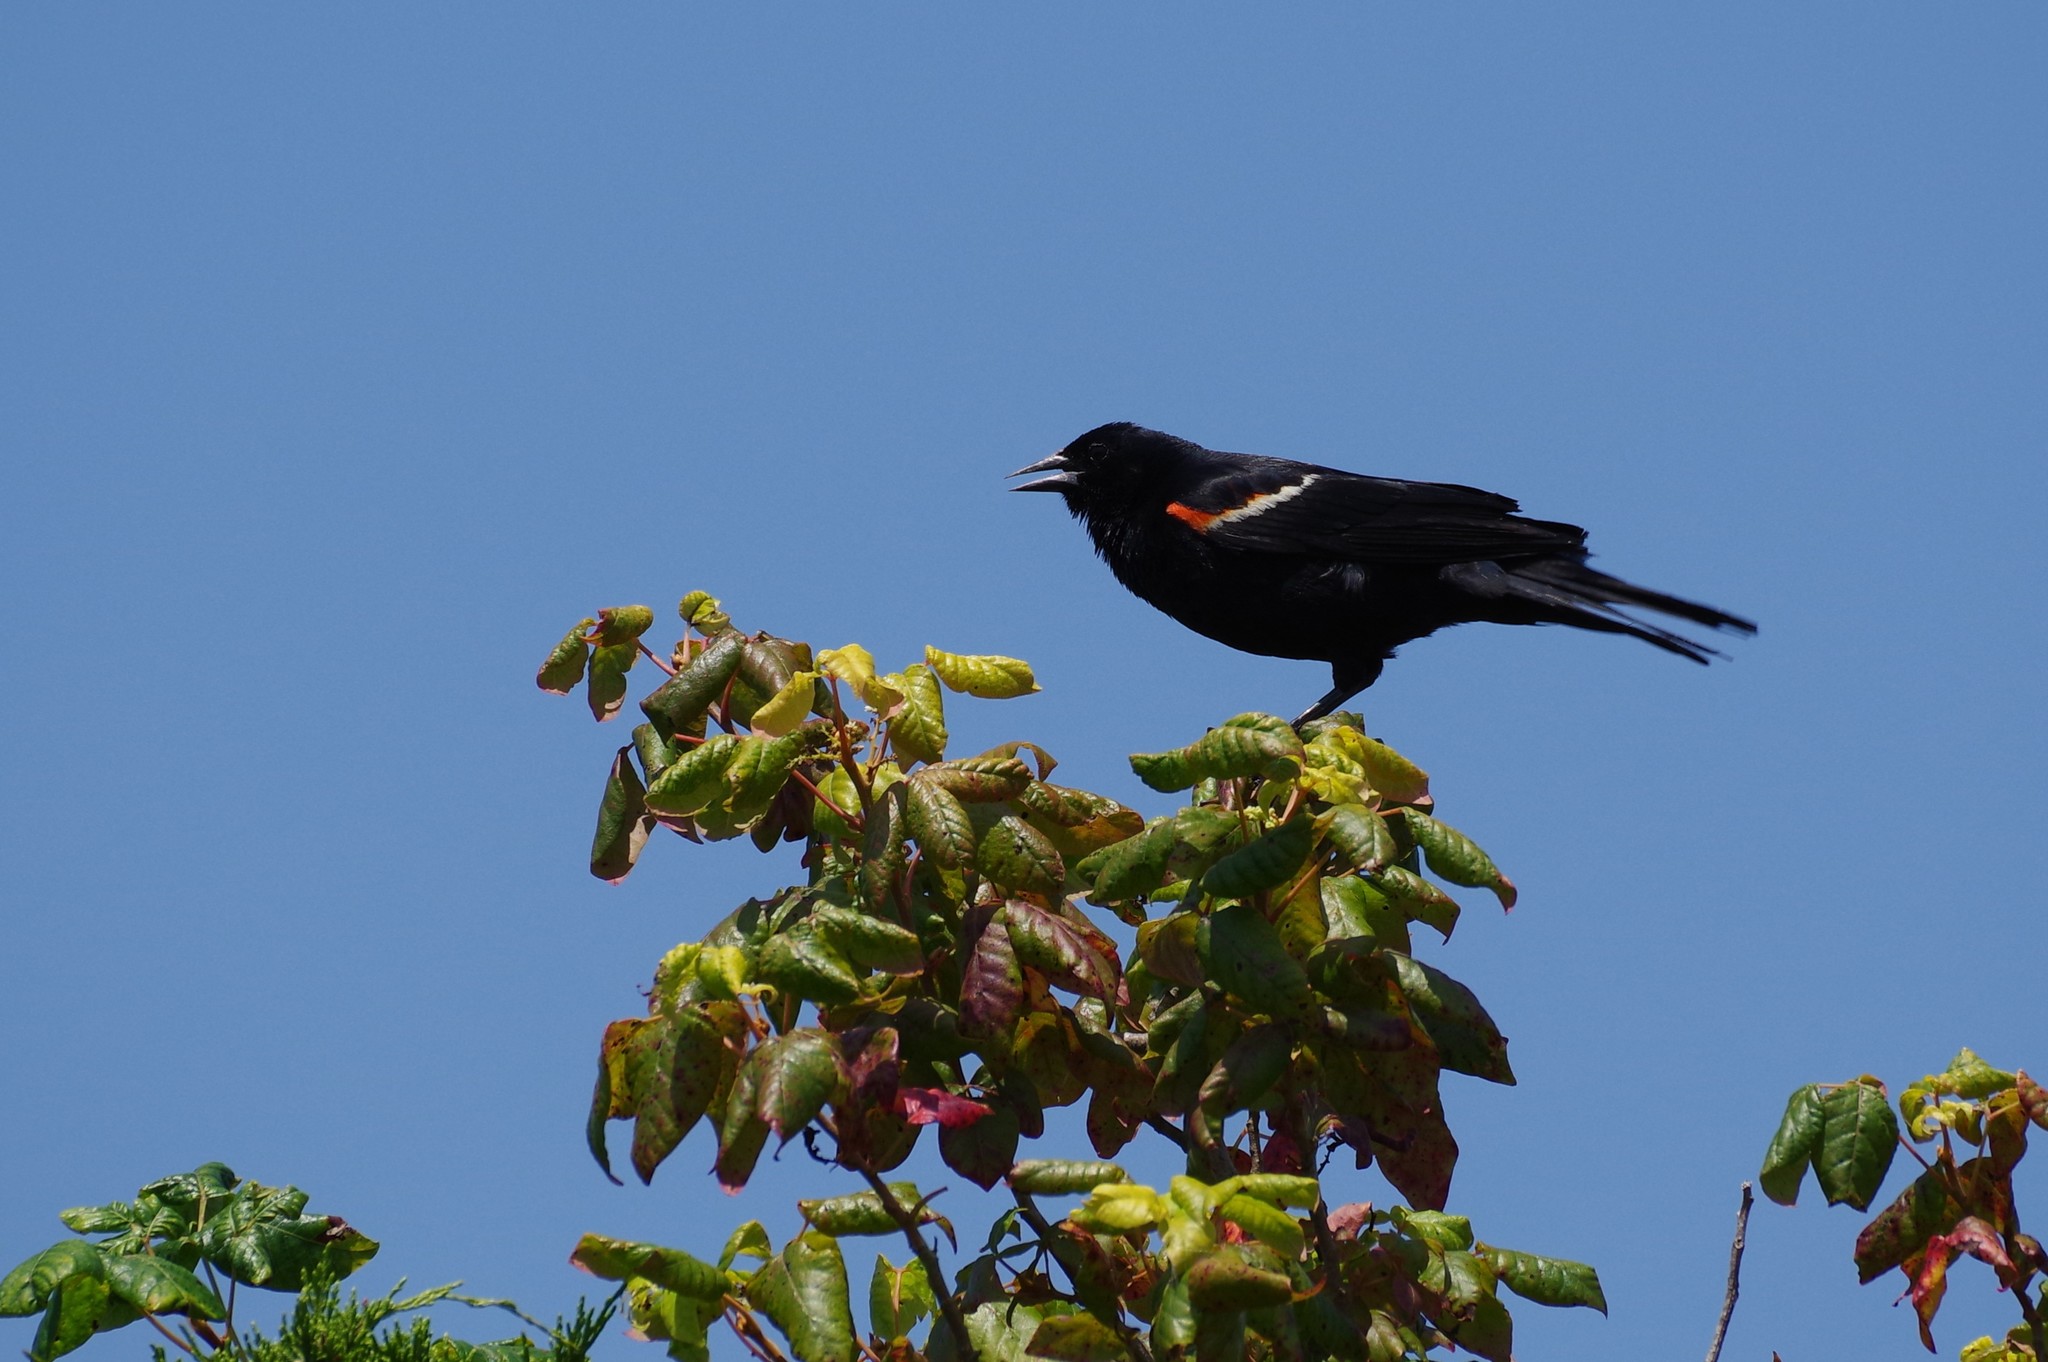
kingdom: Animalia
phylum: Chordata
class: Aves
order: Passeriformes
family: Icteridae
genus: Agelaius
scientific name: Agelaius phoeniceus
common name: Red-winged blackbird
